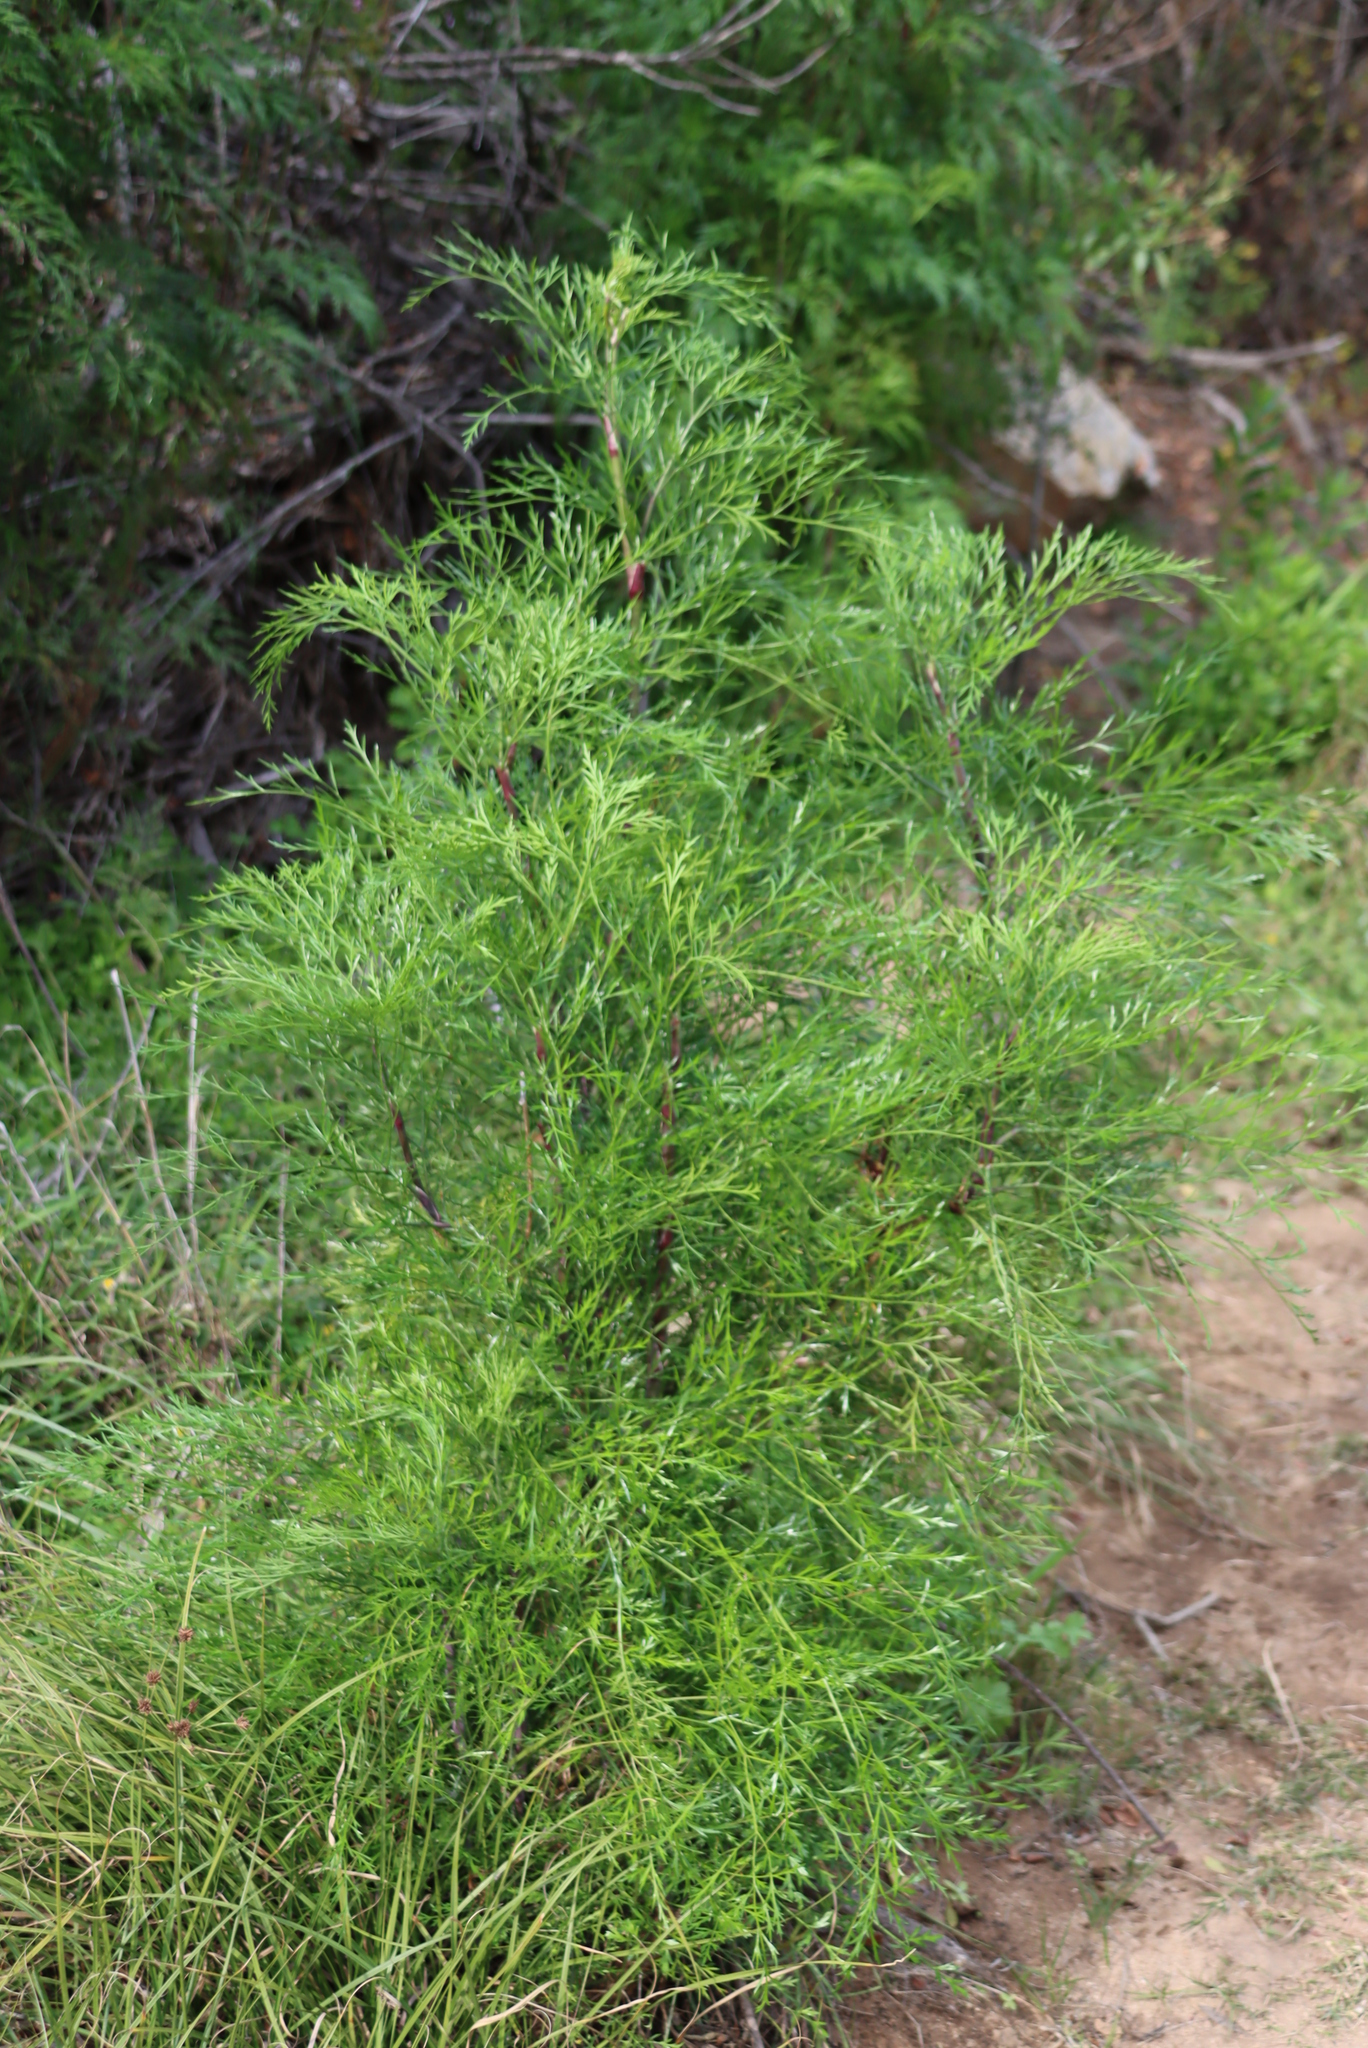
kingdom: Plantae
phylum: Tracheophyta
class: Magnoliopsida
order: Apiales
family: Apiaceae
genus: Notobubon
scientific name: Notobubon tenuifolium
